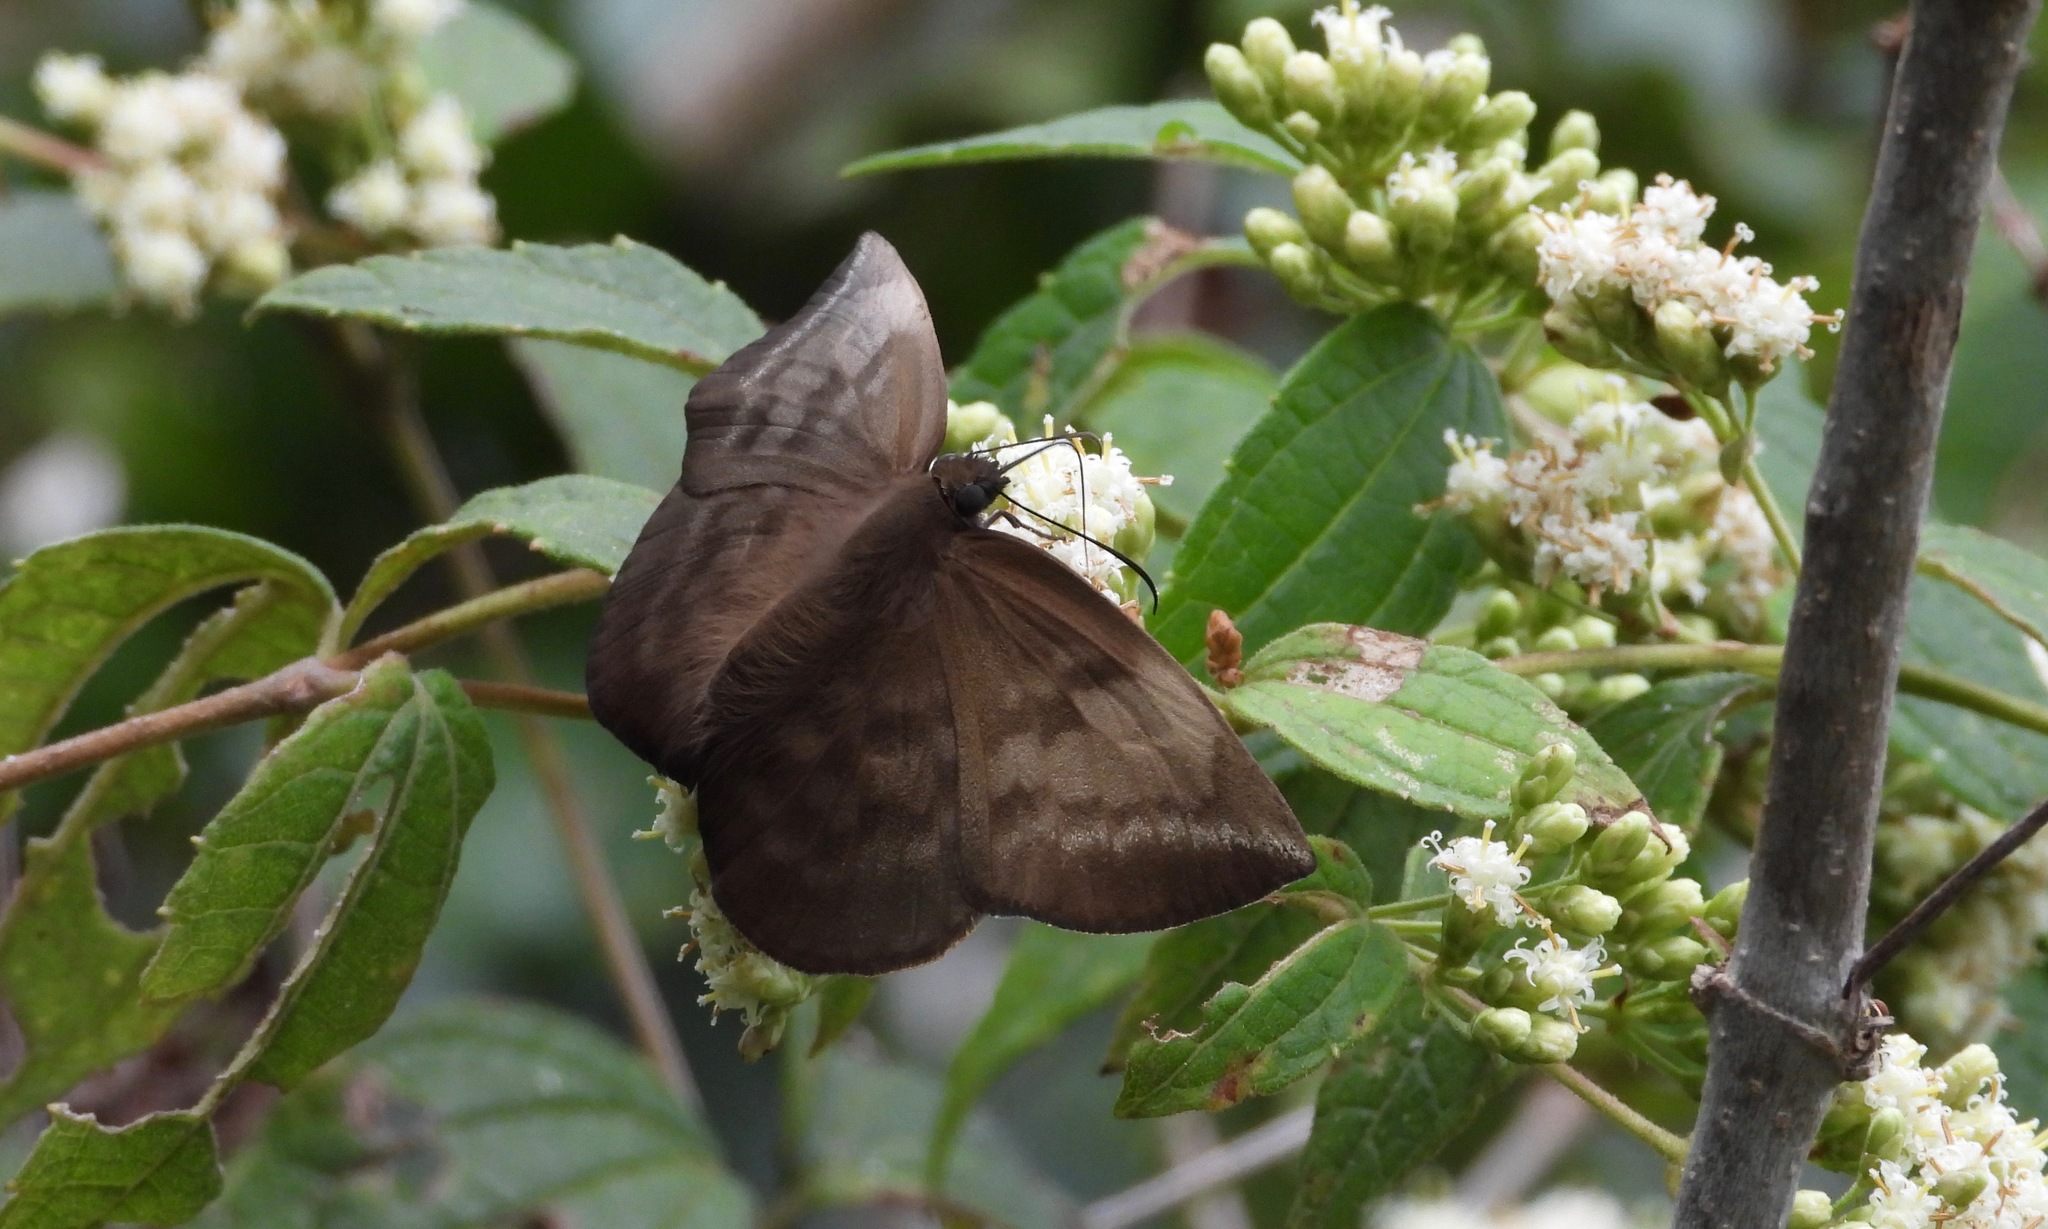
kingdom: Animalia
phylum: Arthropoda
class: Insecta
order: Lepidoptera
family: Hesperiidae
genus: Achlyodes
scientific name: Achlyodes pallida
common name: Pale sicklewing
